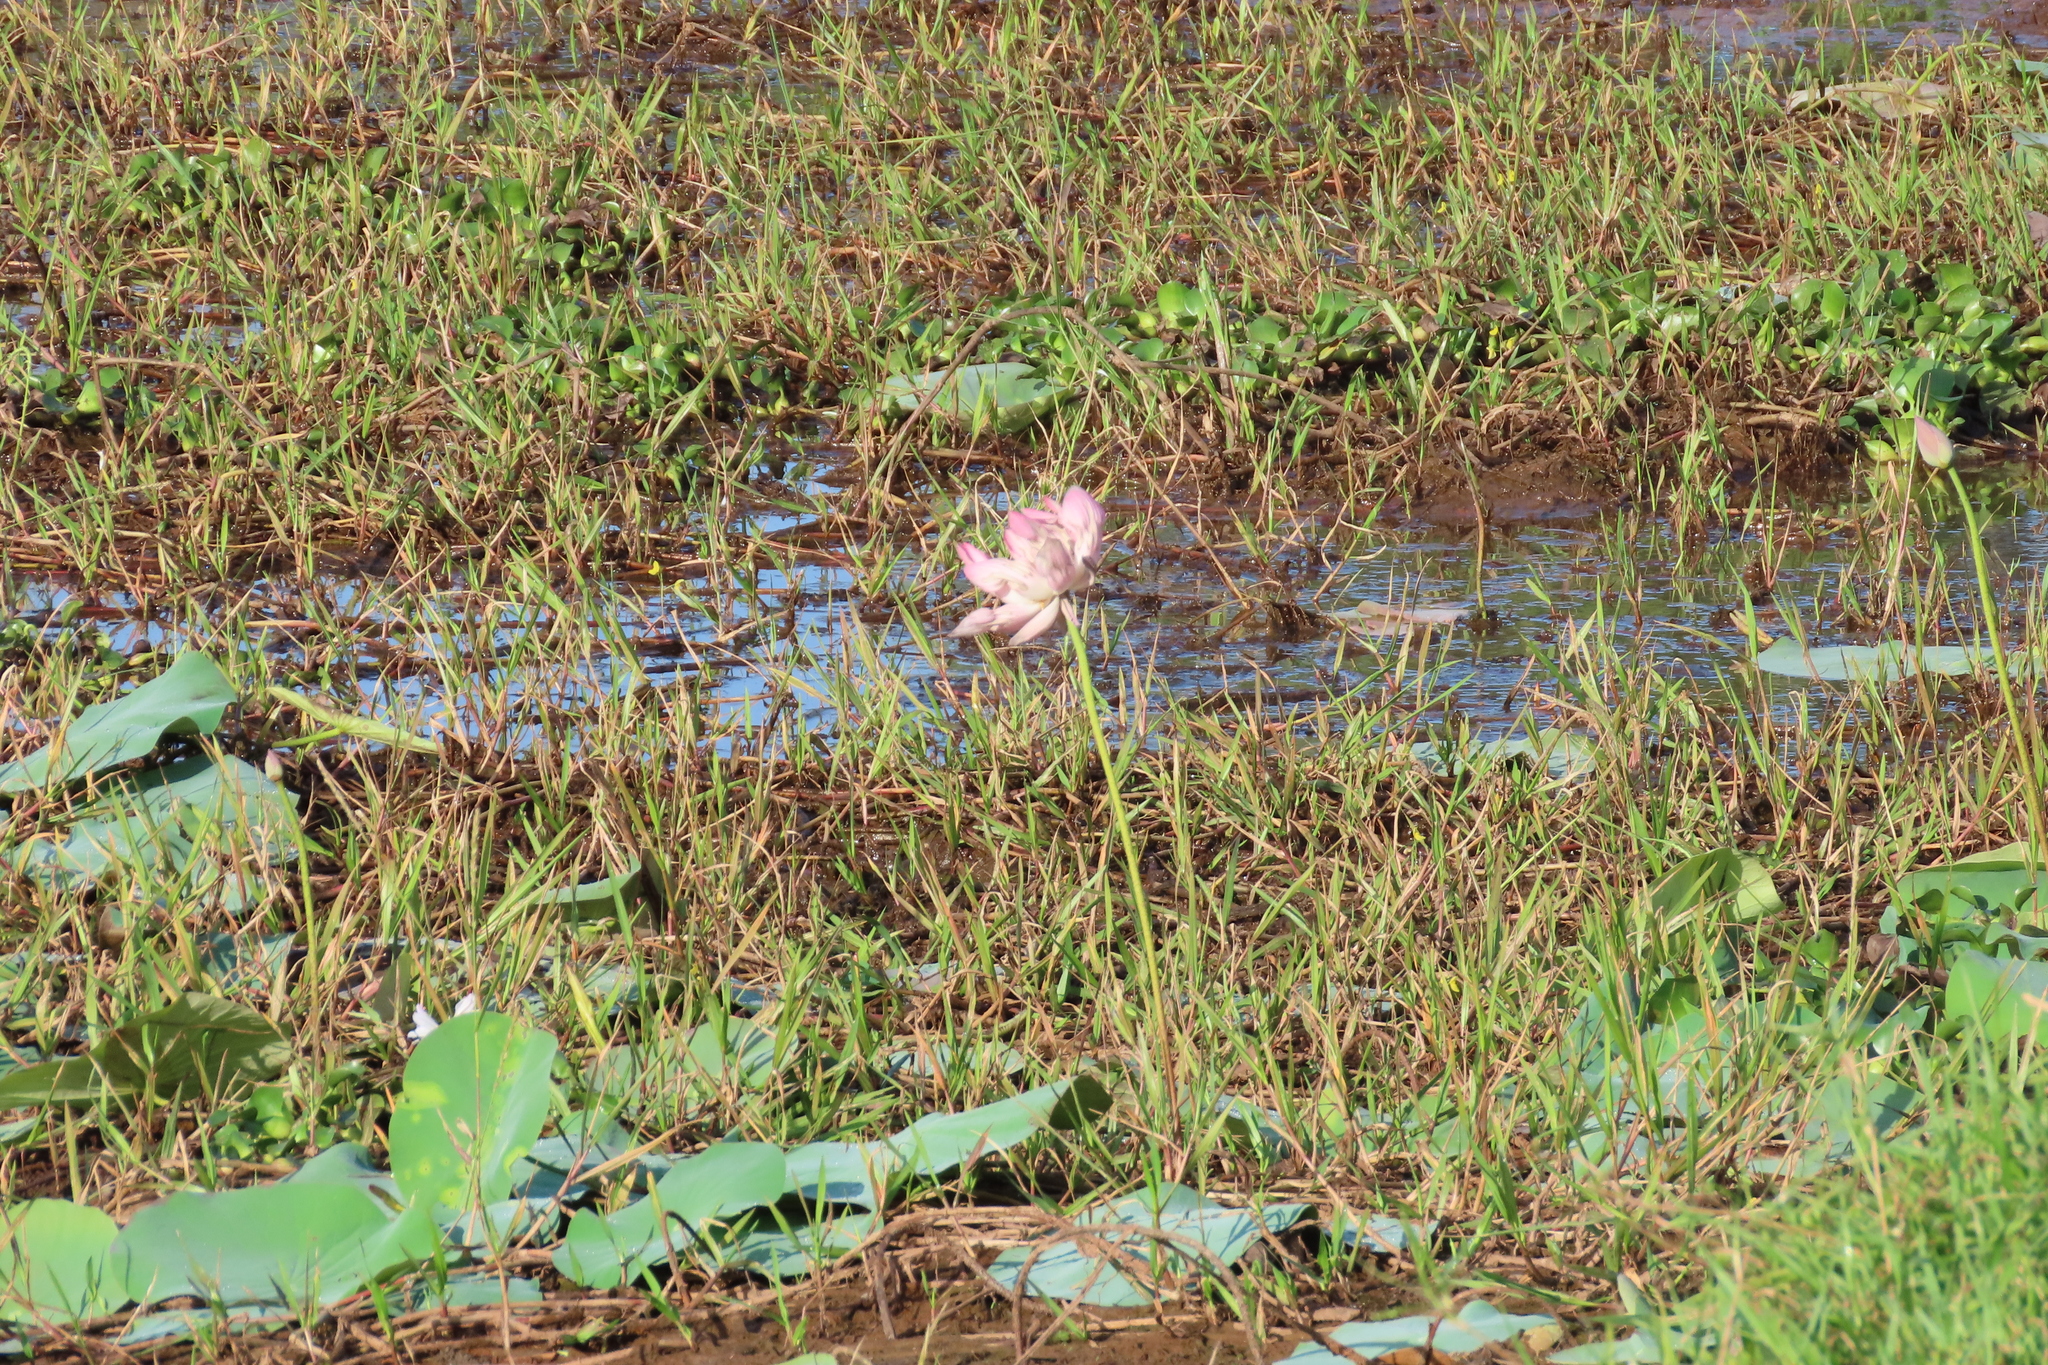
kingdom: Plantae
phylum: Tracheophyta
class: Liliopsida
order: Commelinales
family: Pontederiaceae
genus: Pontederia
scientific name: Pontederia crassipes
